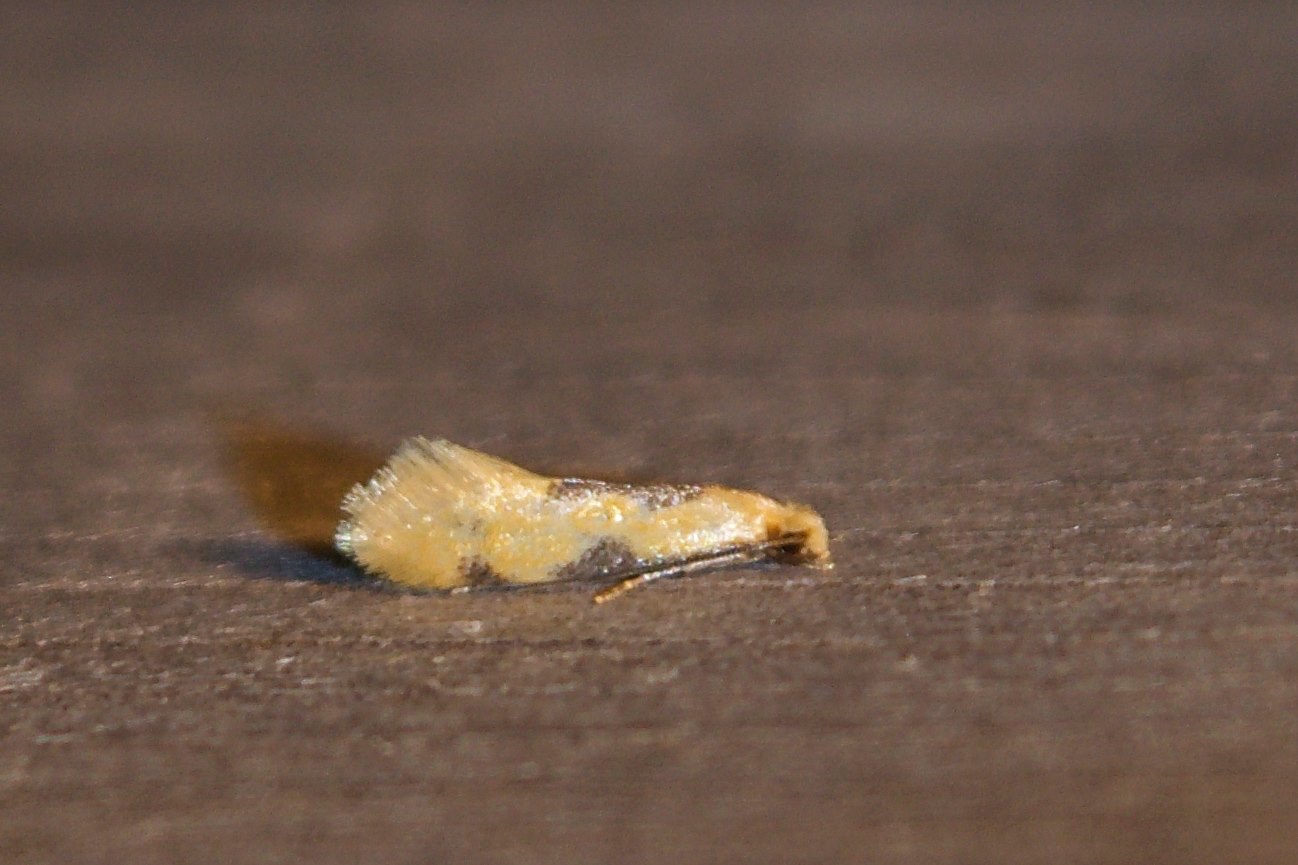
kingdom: Animalia
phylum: Arthropoda
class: Insecta
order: Lepidoptera
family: Meessiidae
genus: Hybroma
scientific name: Hybroma servulella
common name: Yellow wave moth
